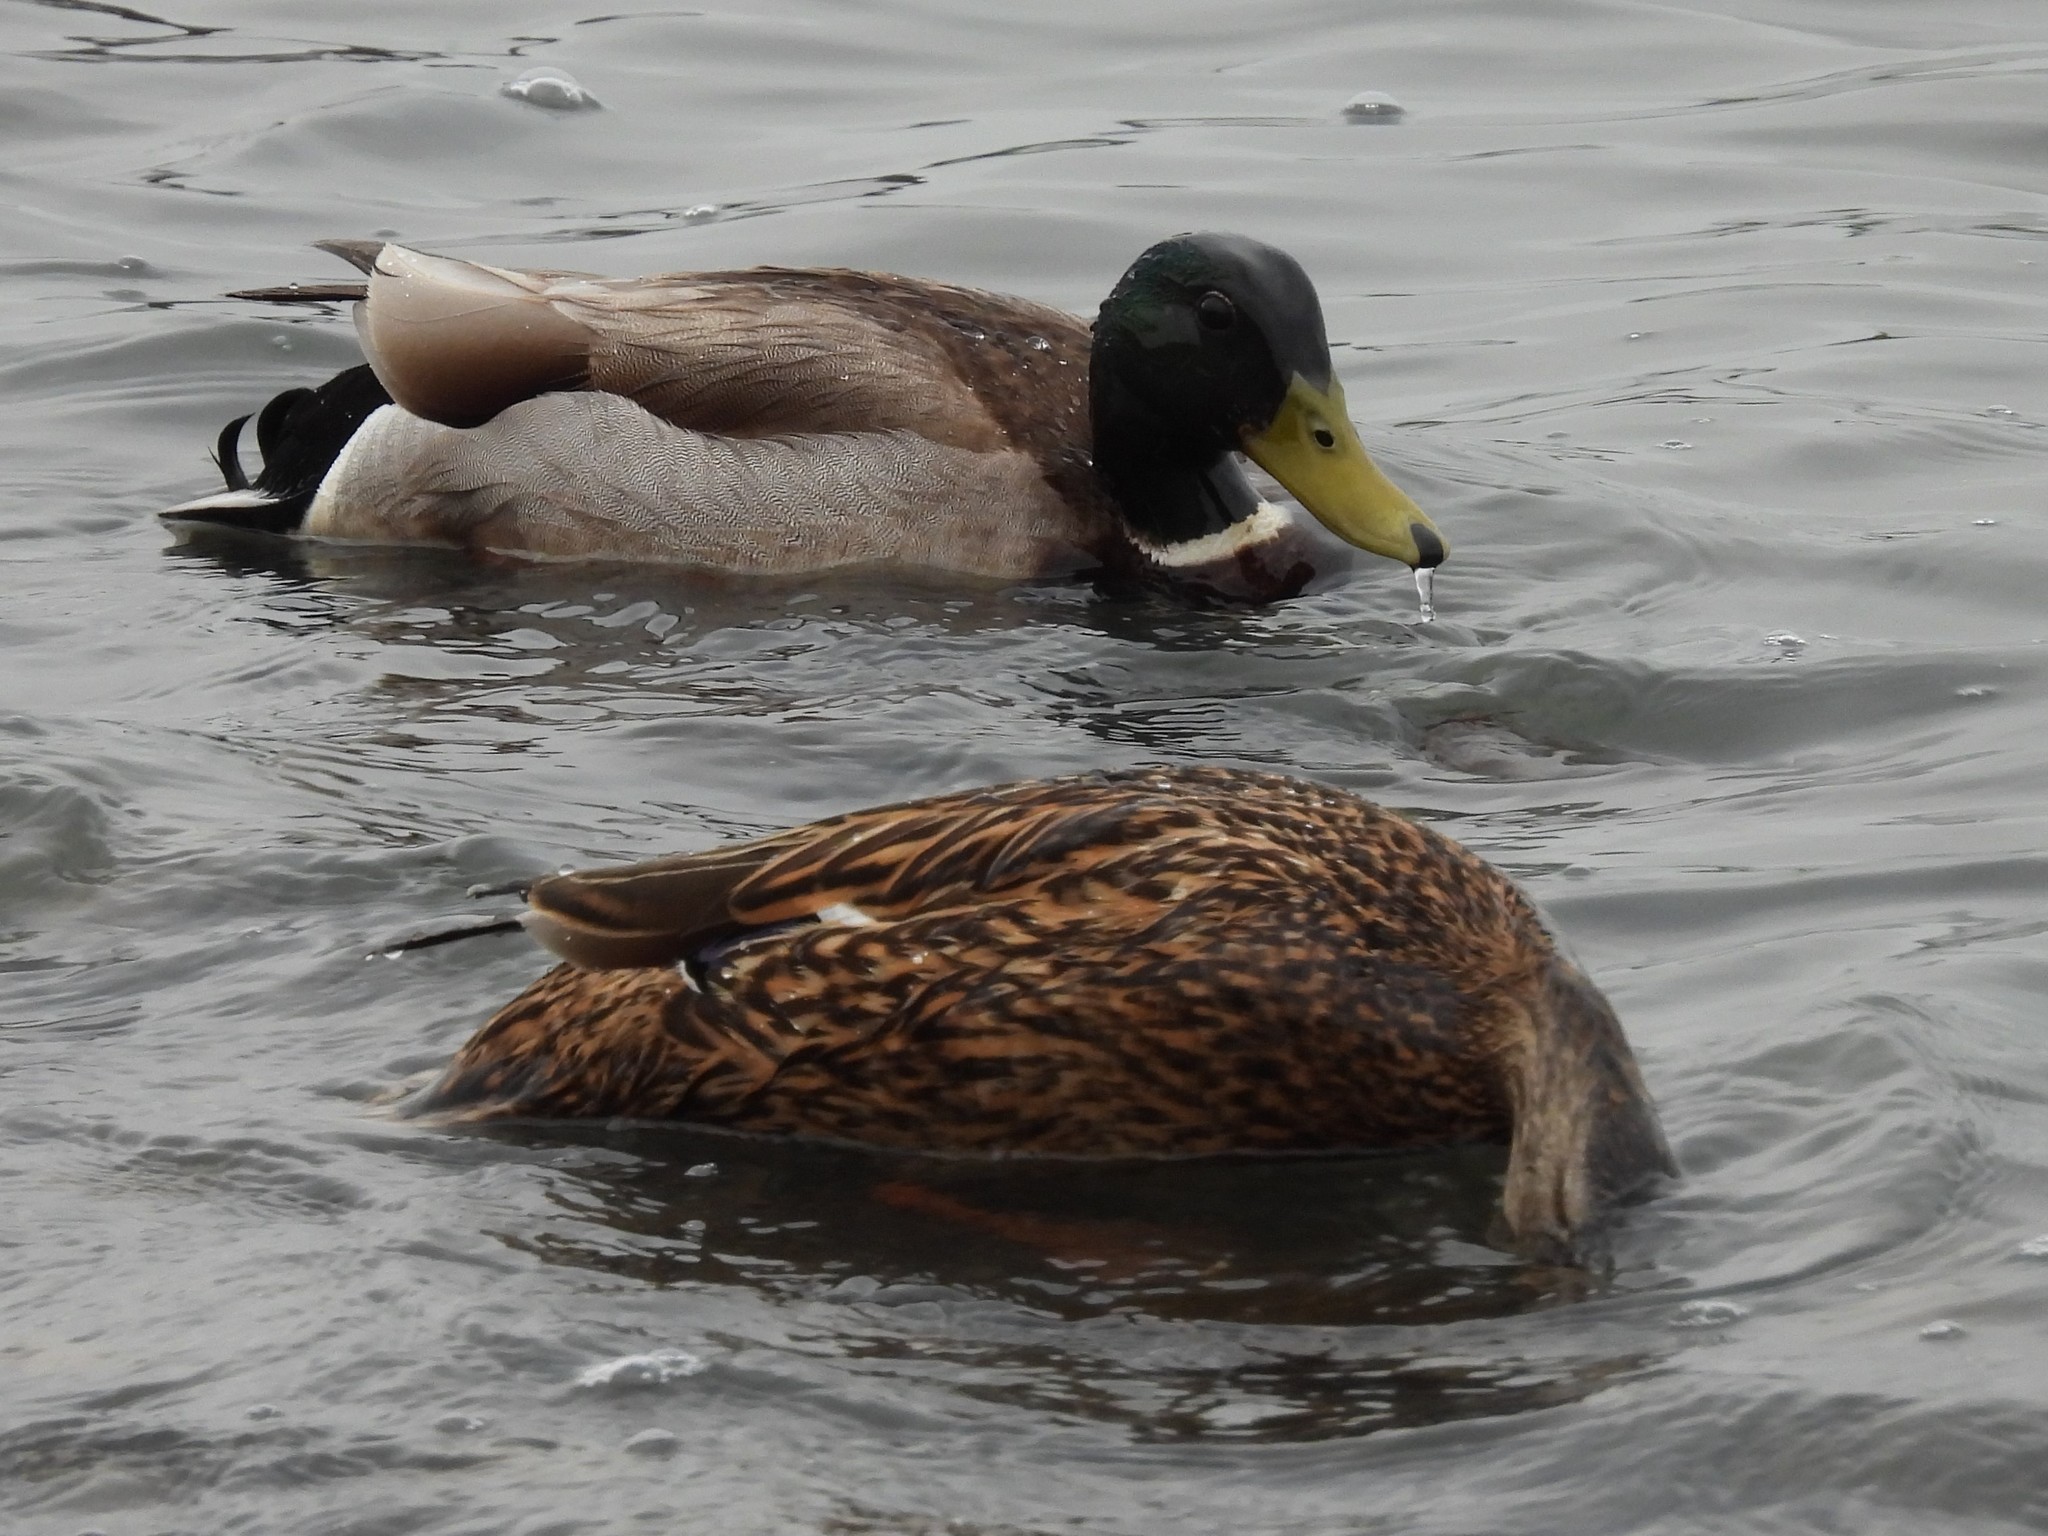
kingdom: Animalia
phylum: Chordata
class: Aves
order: Anseriformes
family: Anatidae
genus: Anas
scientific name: Anas platyrhynchos
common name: Mallard
